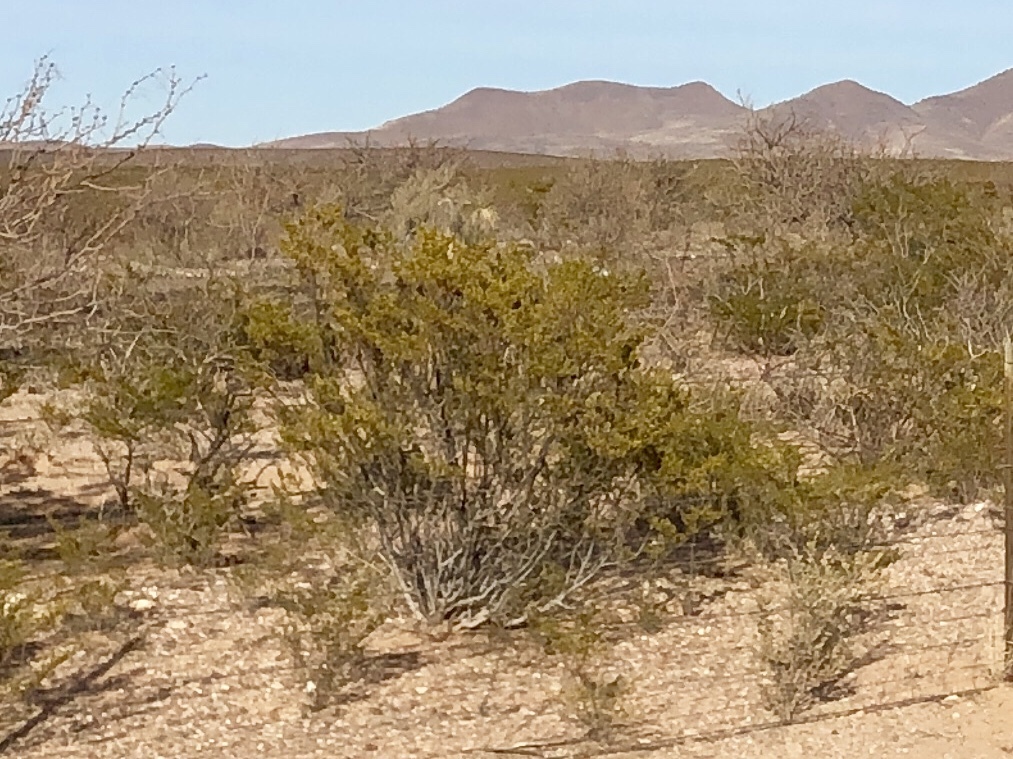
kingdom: Plantae
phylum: Tracheophyta
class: Magnoliopsida
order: Zygophyllales
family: Zygophyllaceae
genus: Larrea
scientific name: Larrea tridentata
